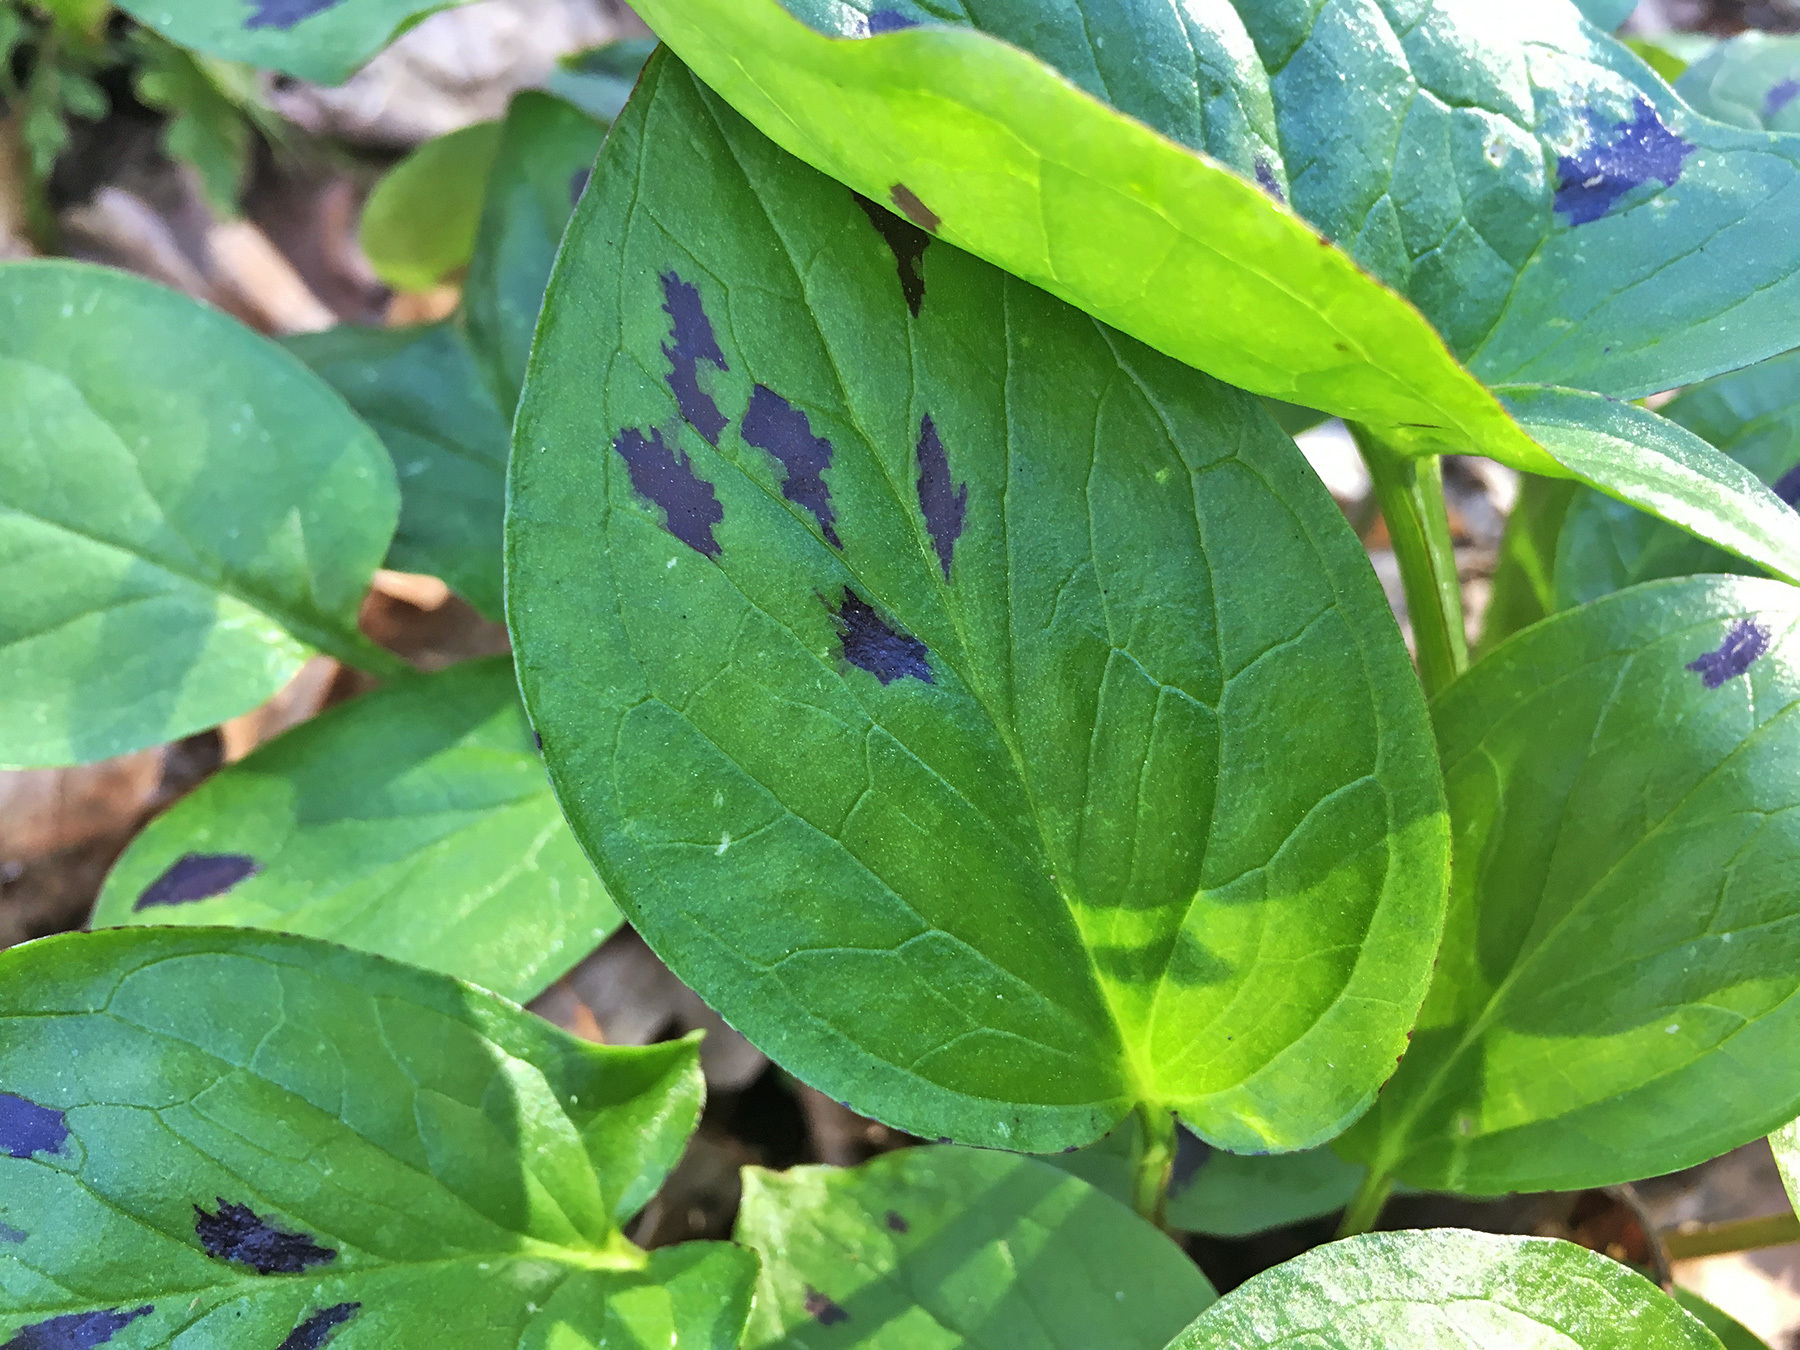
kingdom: Plantae
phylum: Tracheophyta
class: Liliopsida
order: Alismatales
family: Araceae
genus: Arum
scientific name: Arum maculatum
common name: Lords-and-ladies
